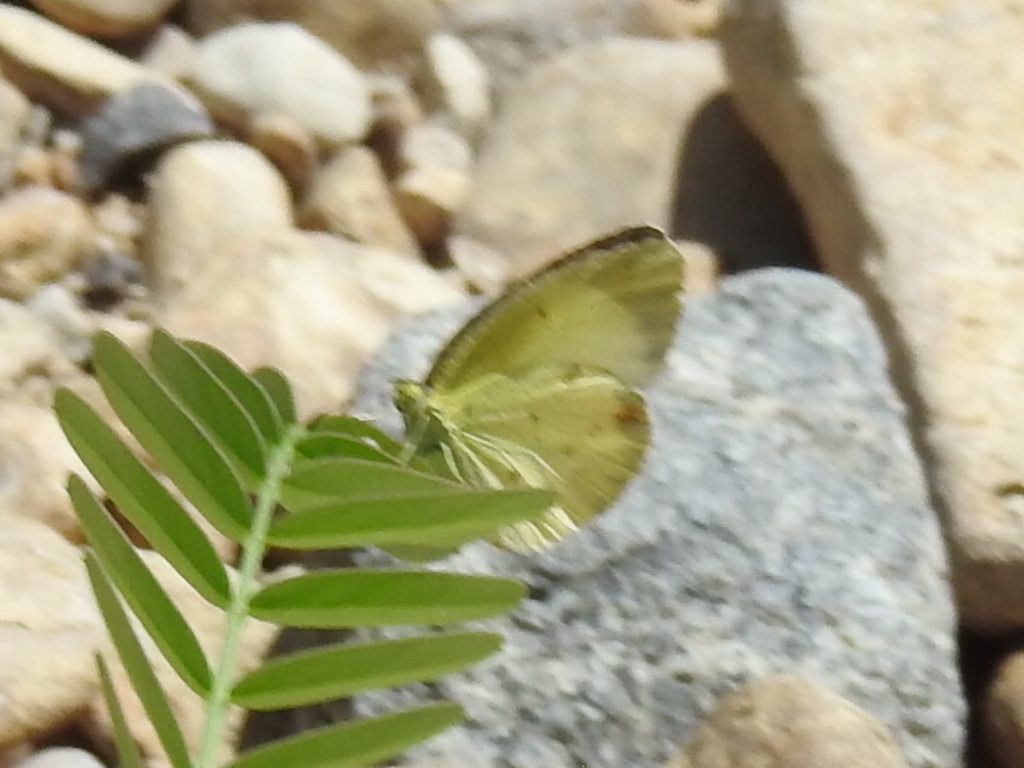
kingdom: Animalia
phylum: Arthropoda
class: Insecta
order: Lepidoptera
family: Pieridae
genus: Pyrisitia
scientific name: Pyrisitia lisa
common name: Little yellow
